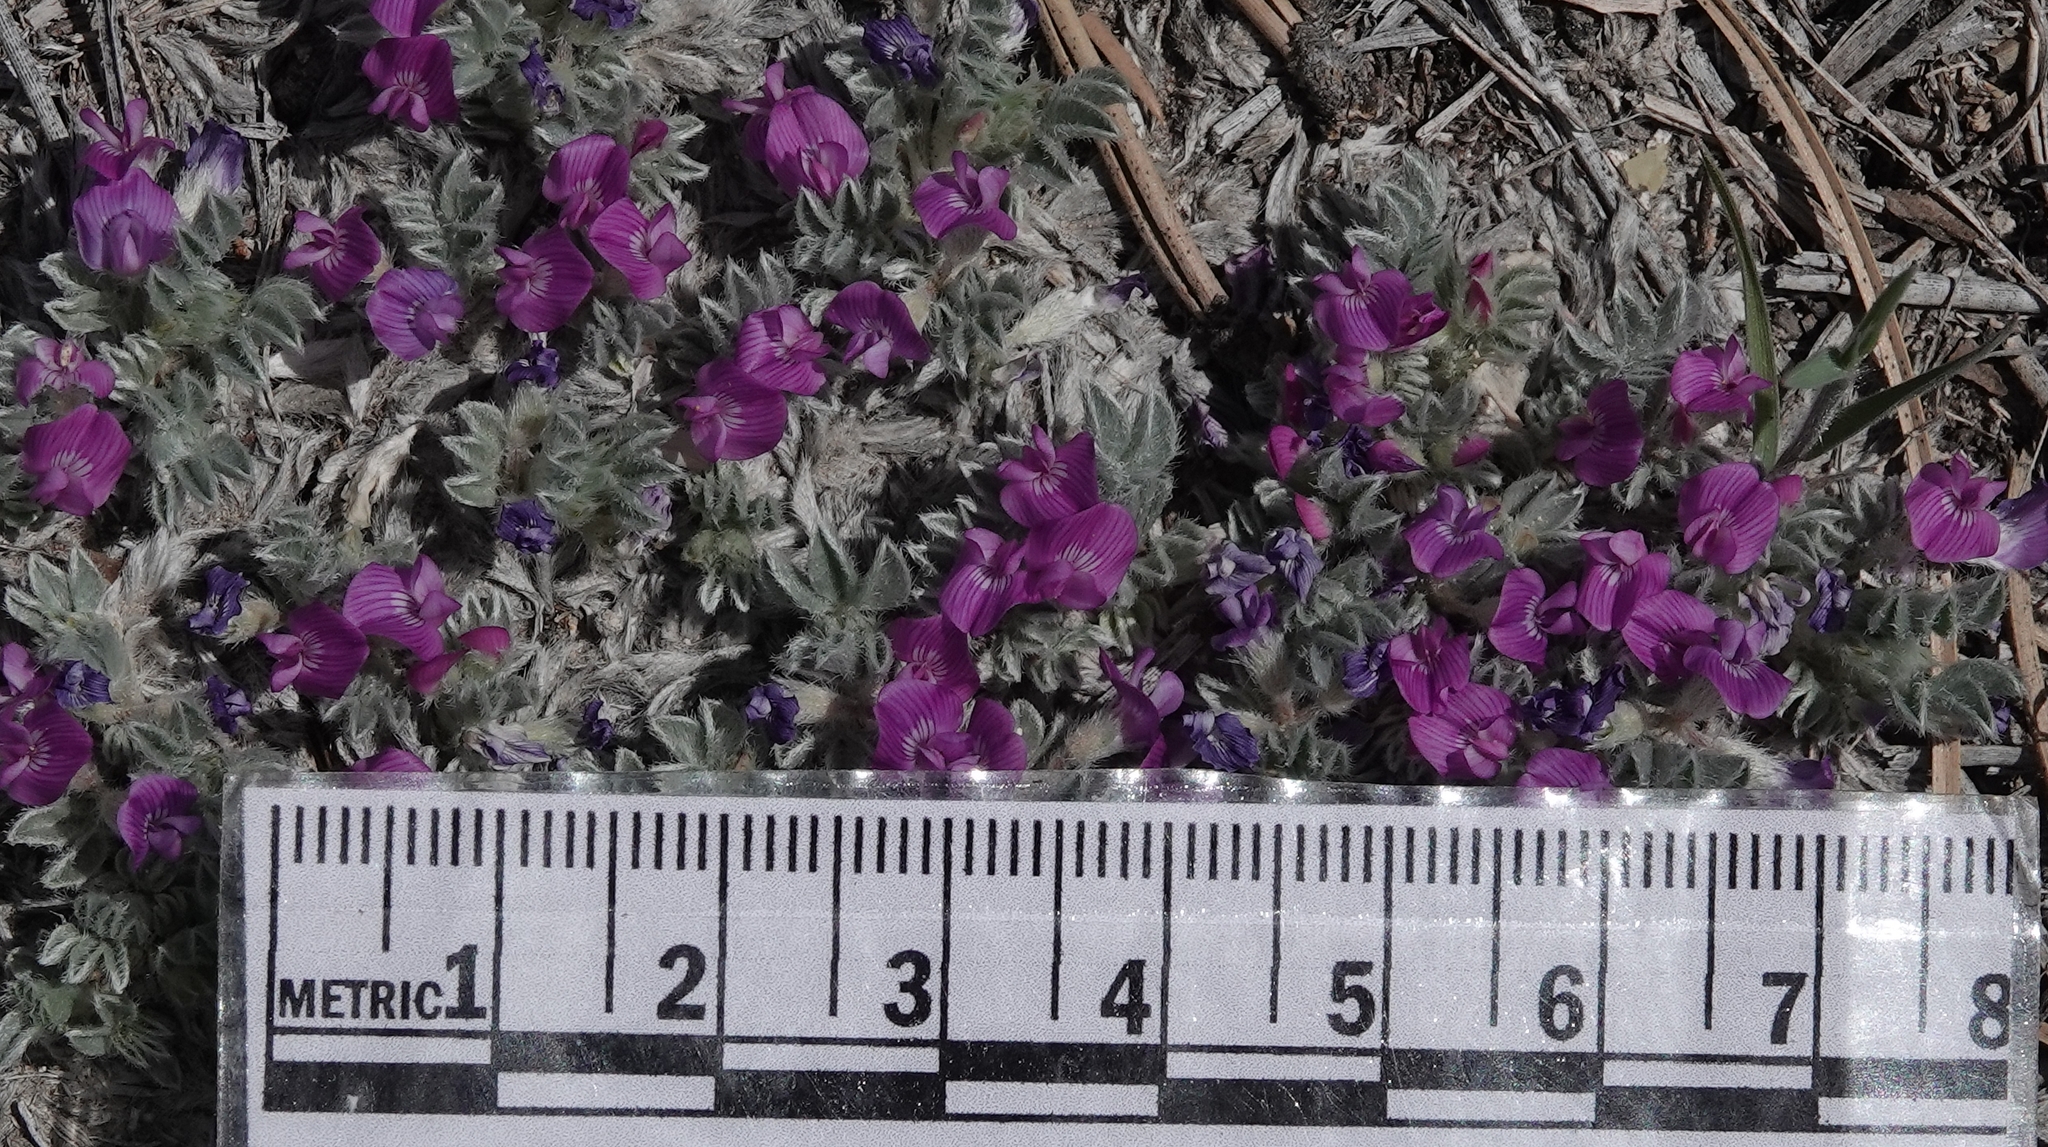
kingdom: Plantae
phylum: Tracheophyta
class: Magnoliopsida
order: Fabales
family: Fabaceae
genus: Astragalus
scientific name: Astragalus sericoleucus
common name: Silky orophaca
